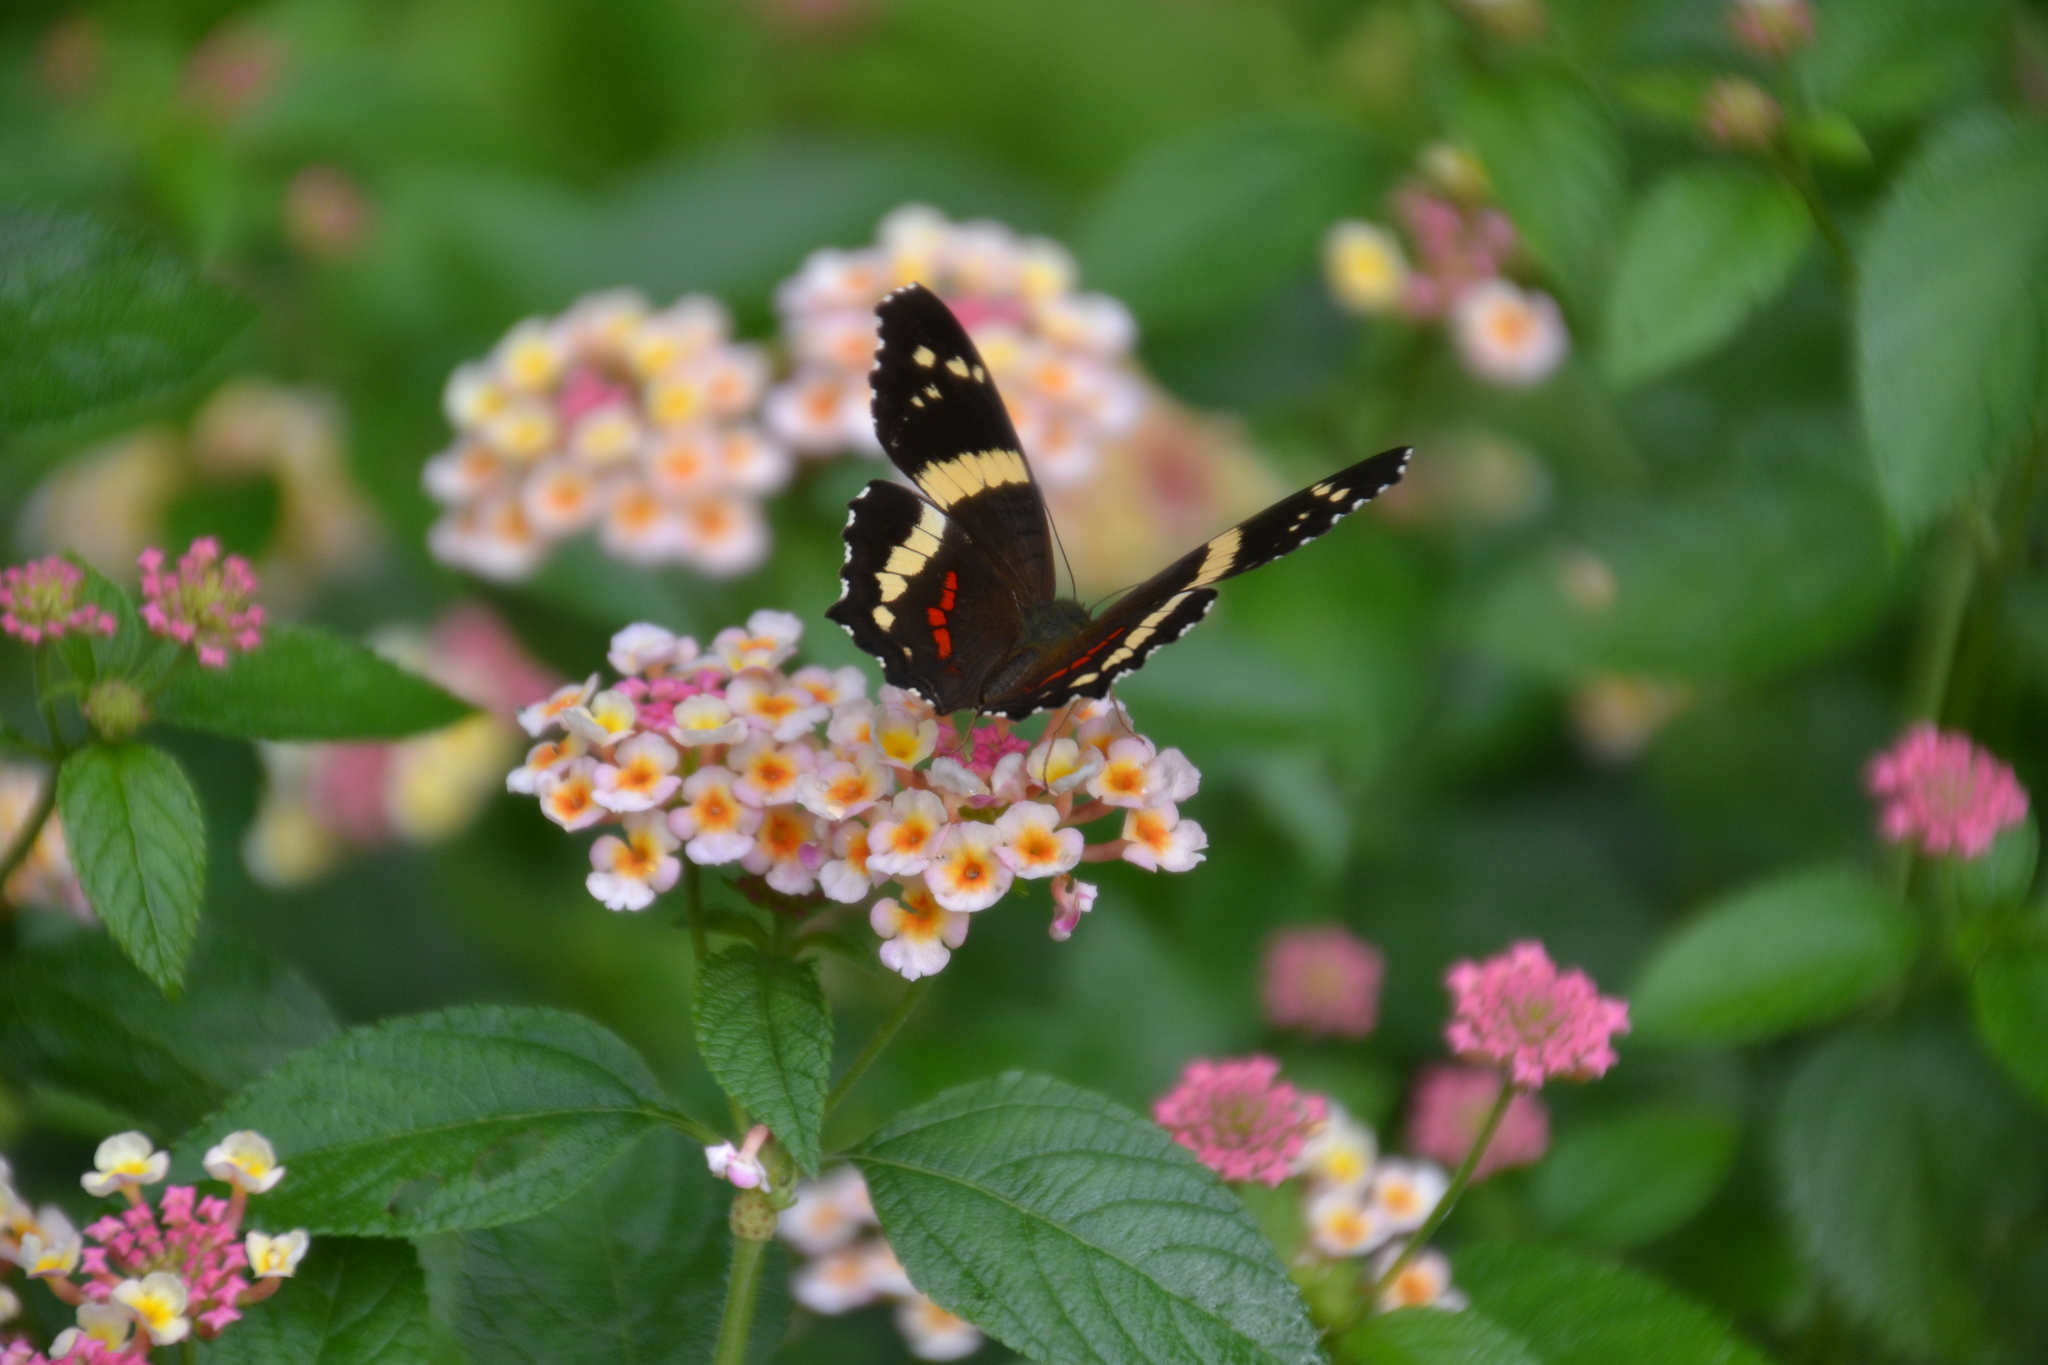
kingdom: Animalia
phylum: Arthropoda
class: Insecta
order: Lepidoptera
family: Nymphalidae
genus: Anartia
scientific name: Anartia fatima
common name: Banded peacock
